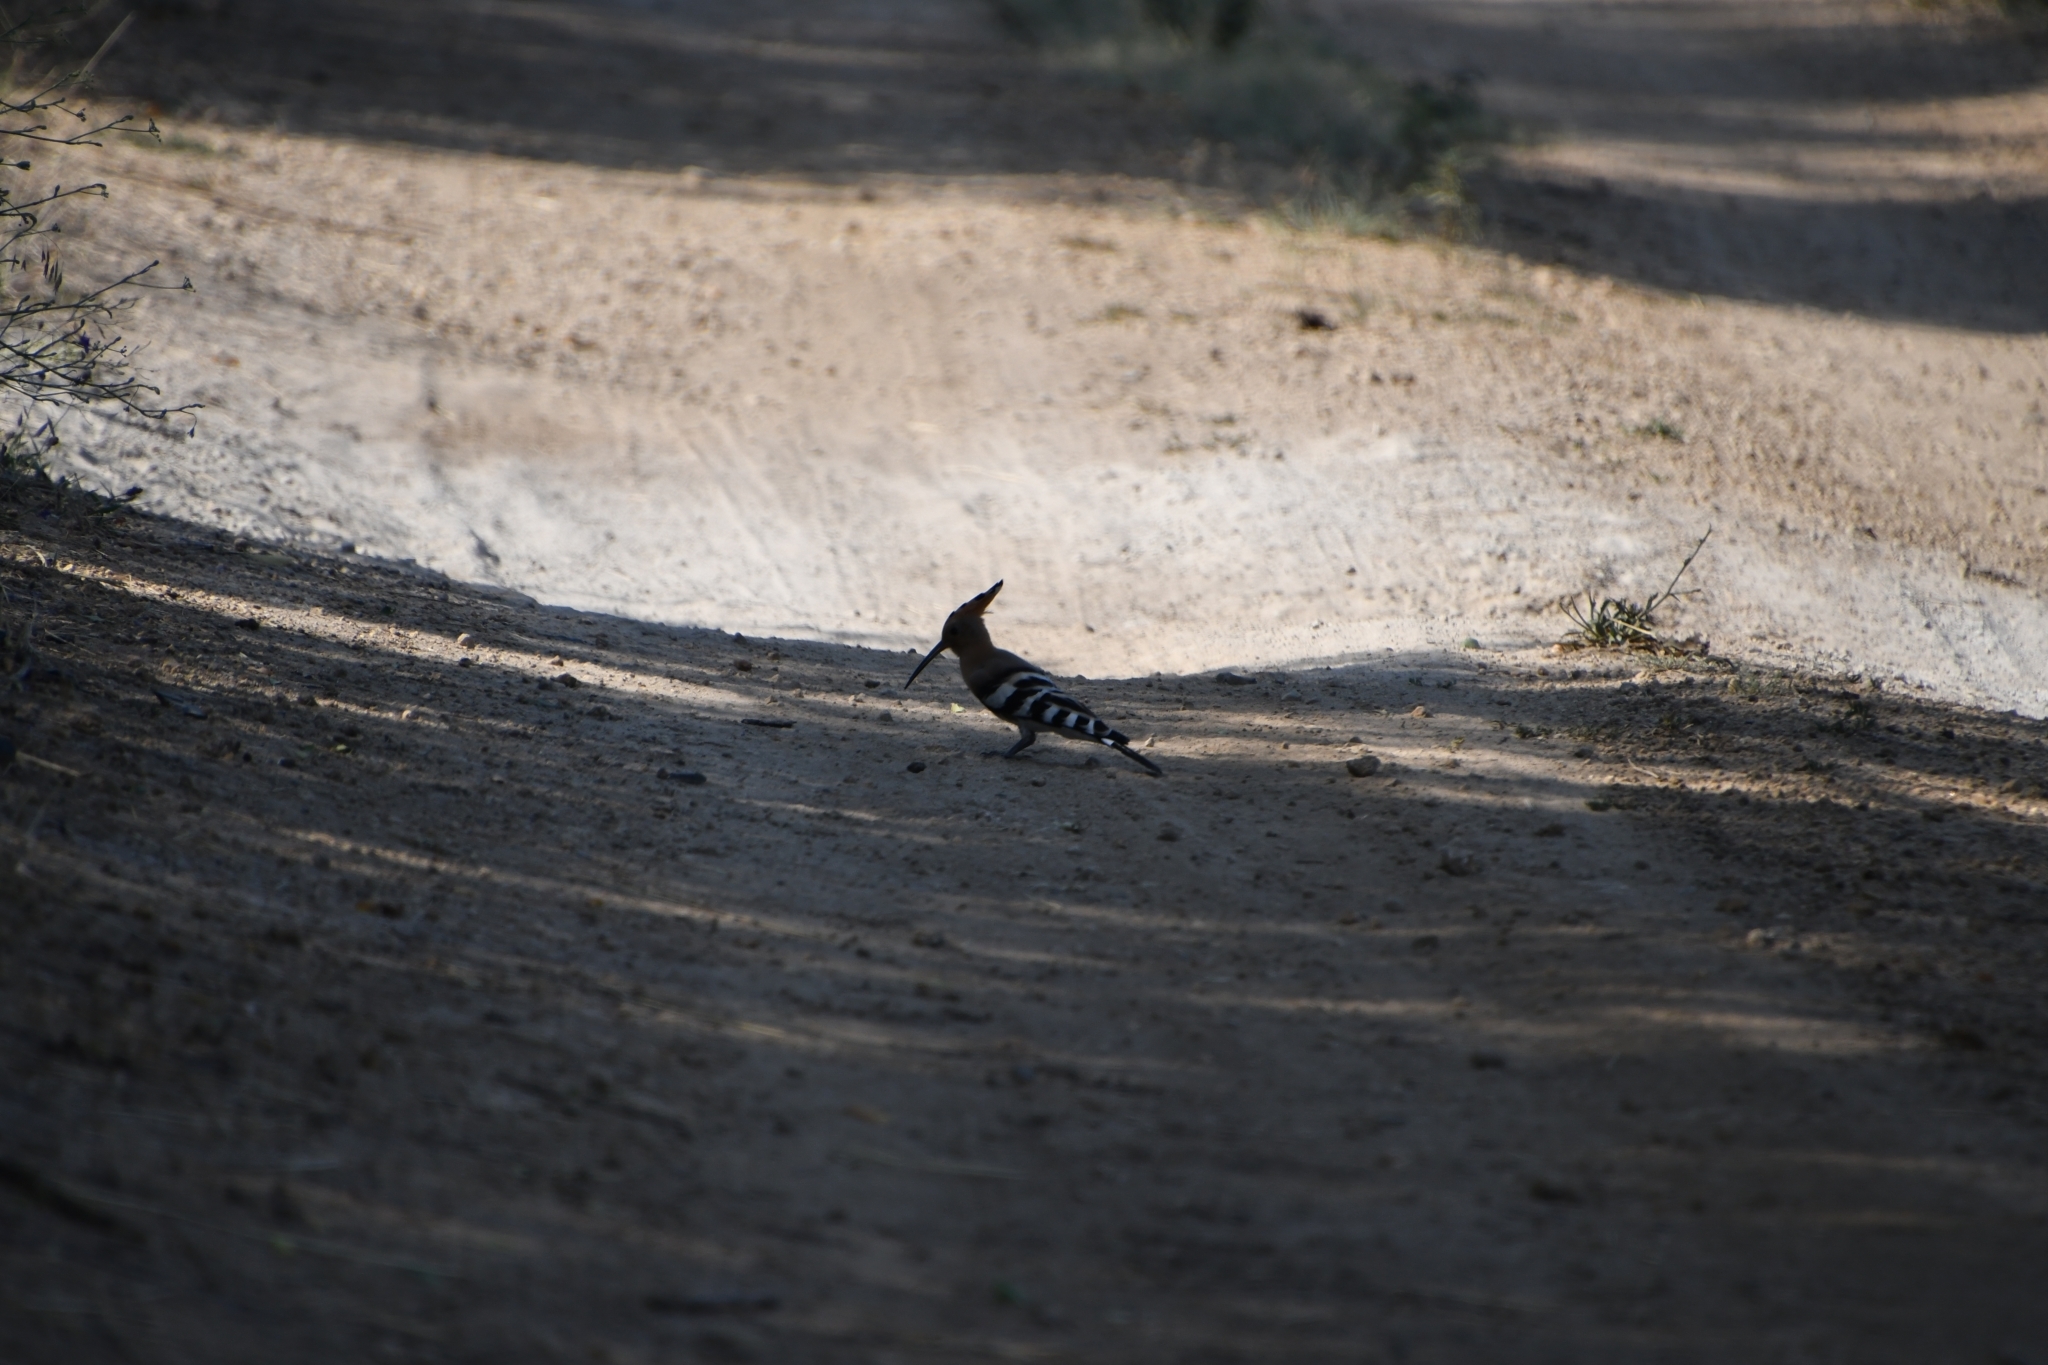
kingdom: Animalia
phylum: Chordata
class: Aves
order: Bucerotiformes
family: Upupidae
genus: Upupa
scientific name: Upupa epops
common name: Eurasian hoopoe
